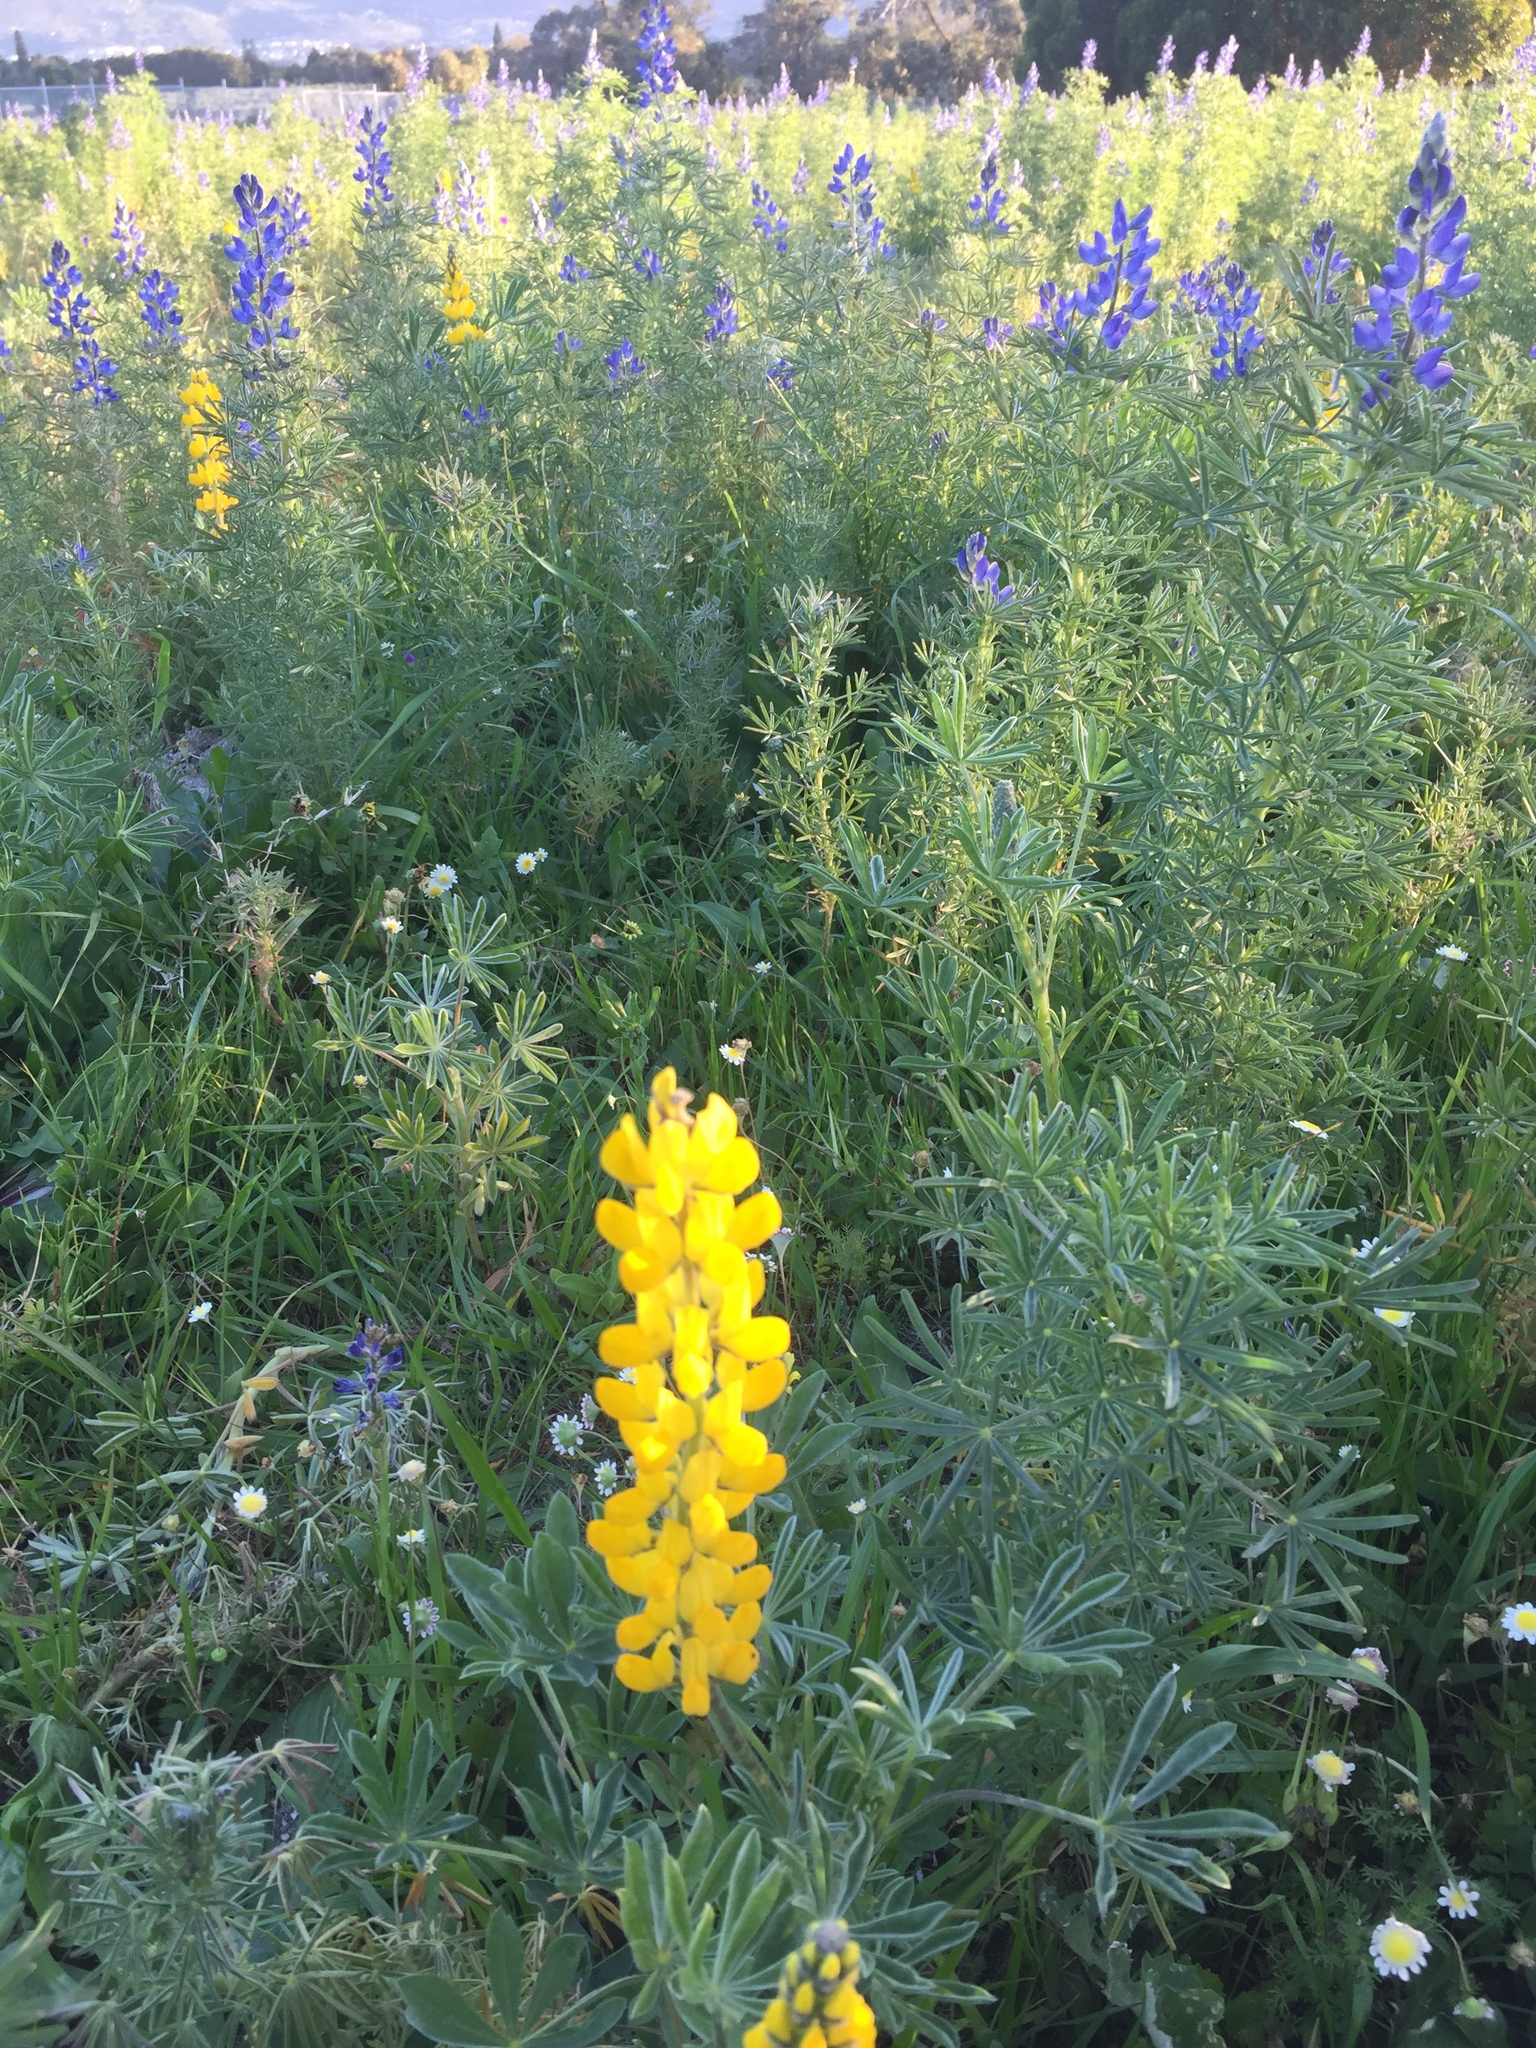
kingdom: Plantae
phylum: Tracheophyta
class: Magnoliopsida
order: Fabales
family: Fabaceae
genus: Lupinus
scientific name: Lupinus luteus
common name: European yellow lupine
